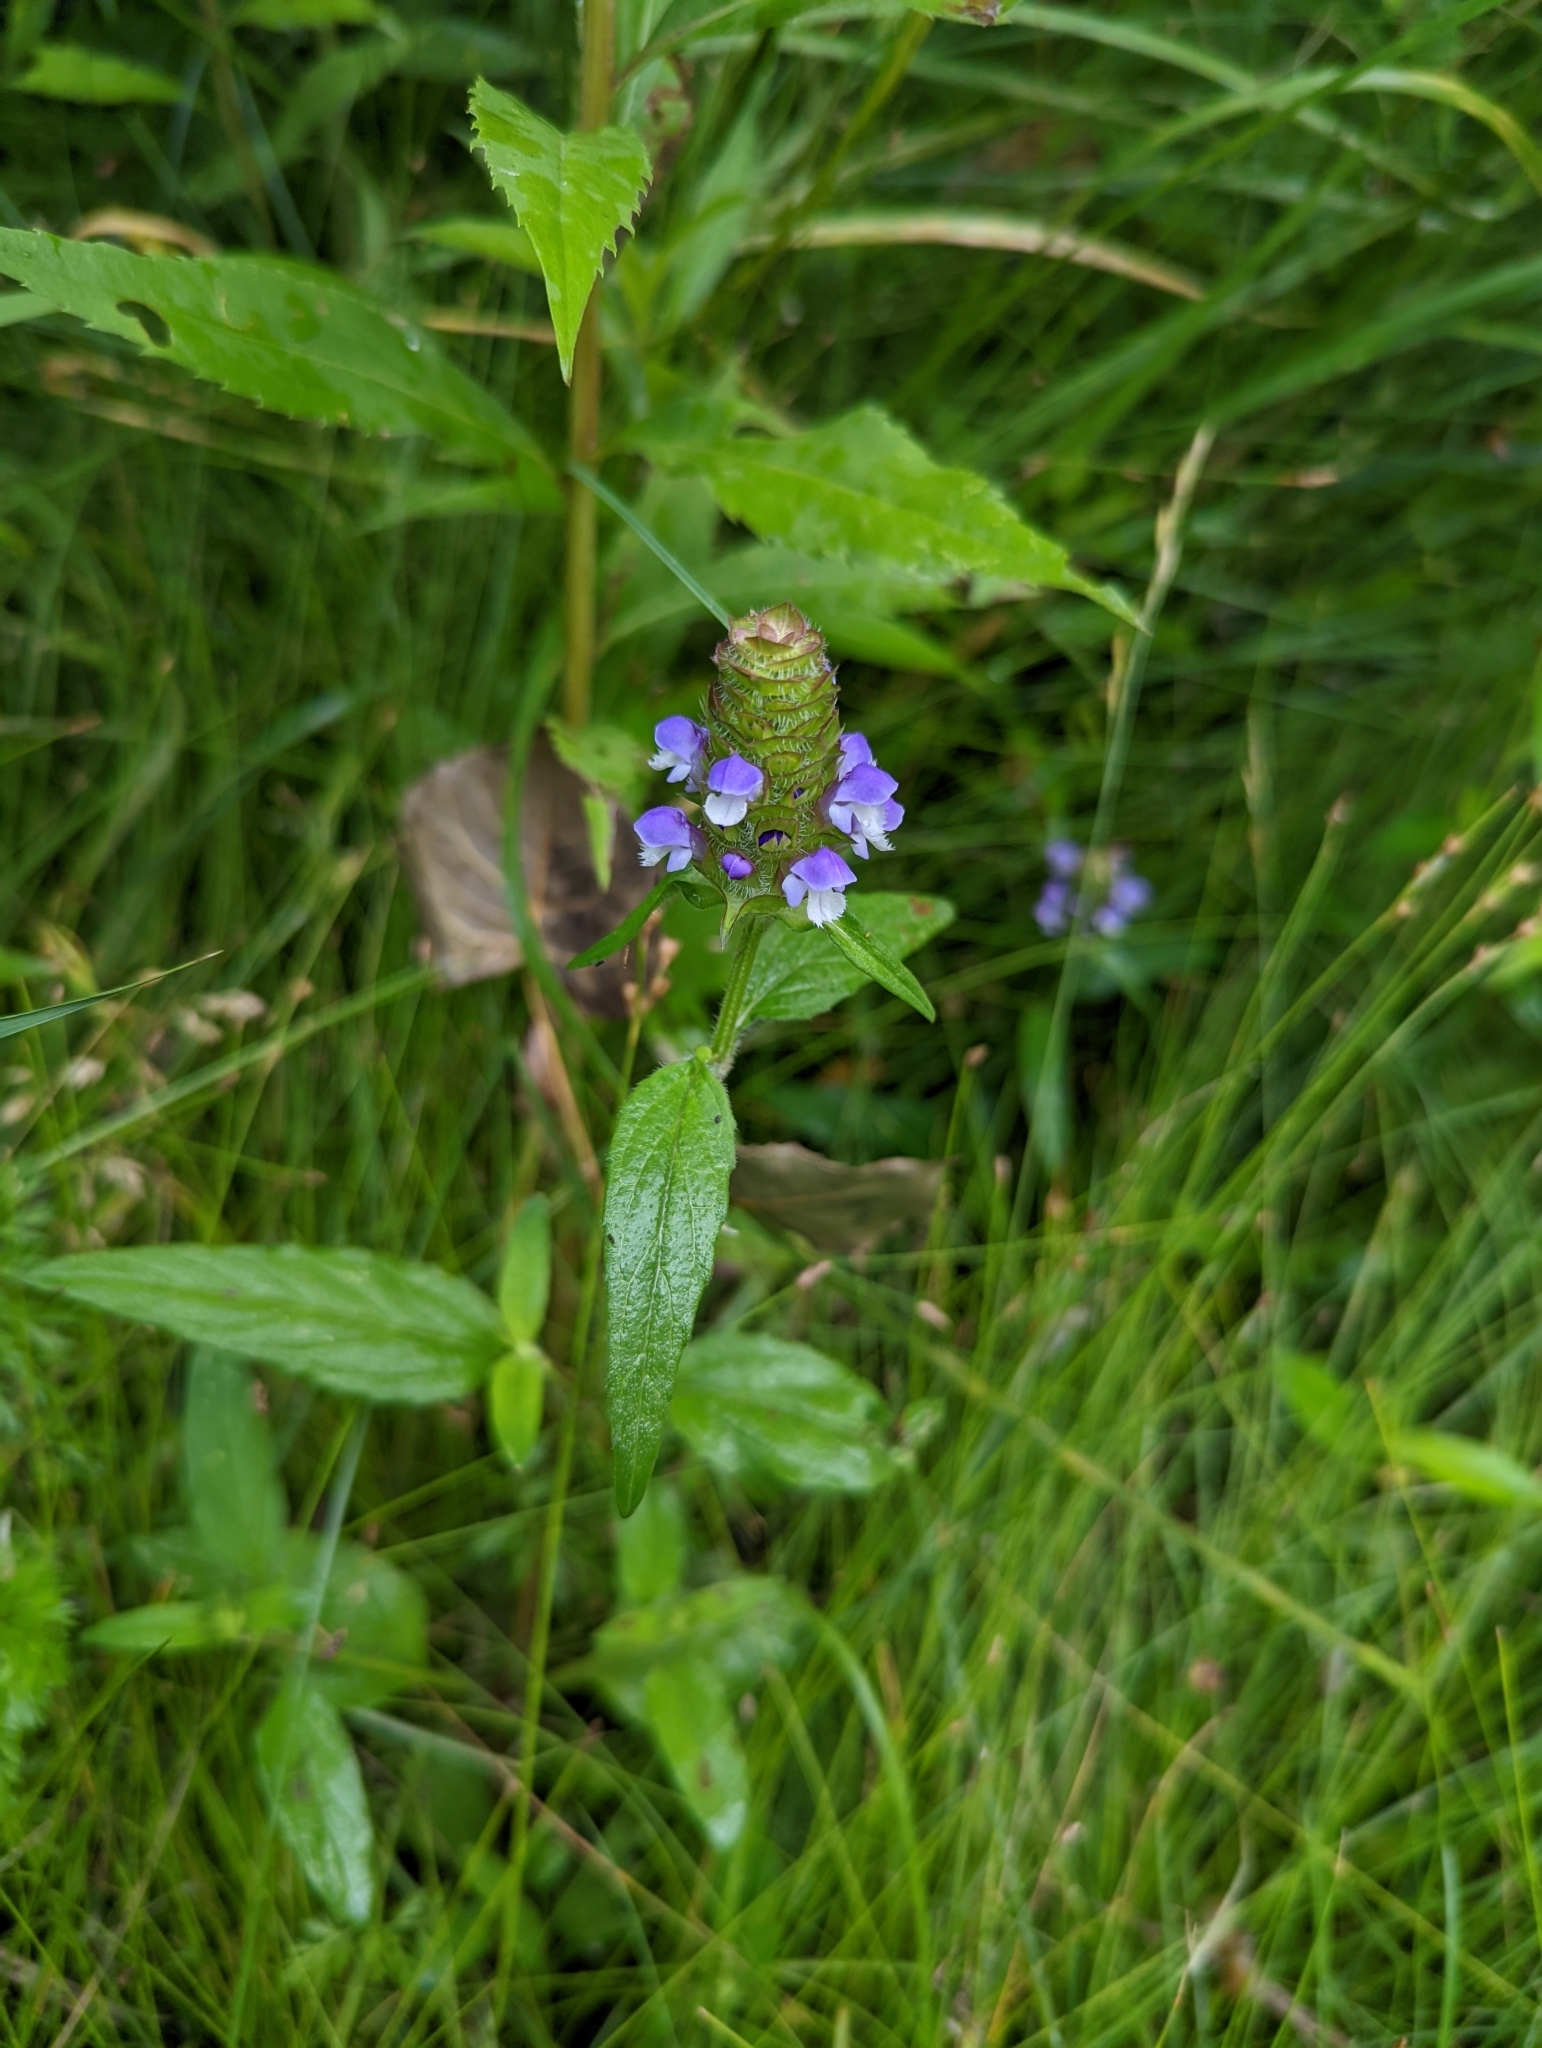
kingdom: Plantae
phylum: Tracheophyta
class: Magnoliopsida
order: Lamiales
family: Lamiaceae
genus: Prunella
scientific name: Prunella vulgaris
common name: Heal-all
